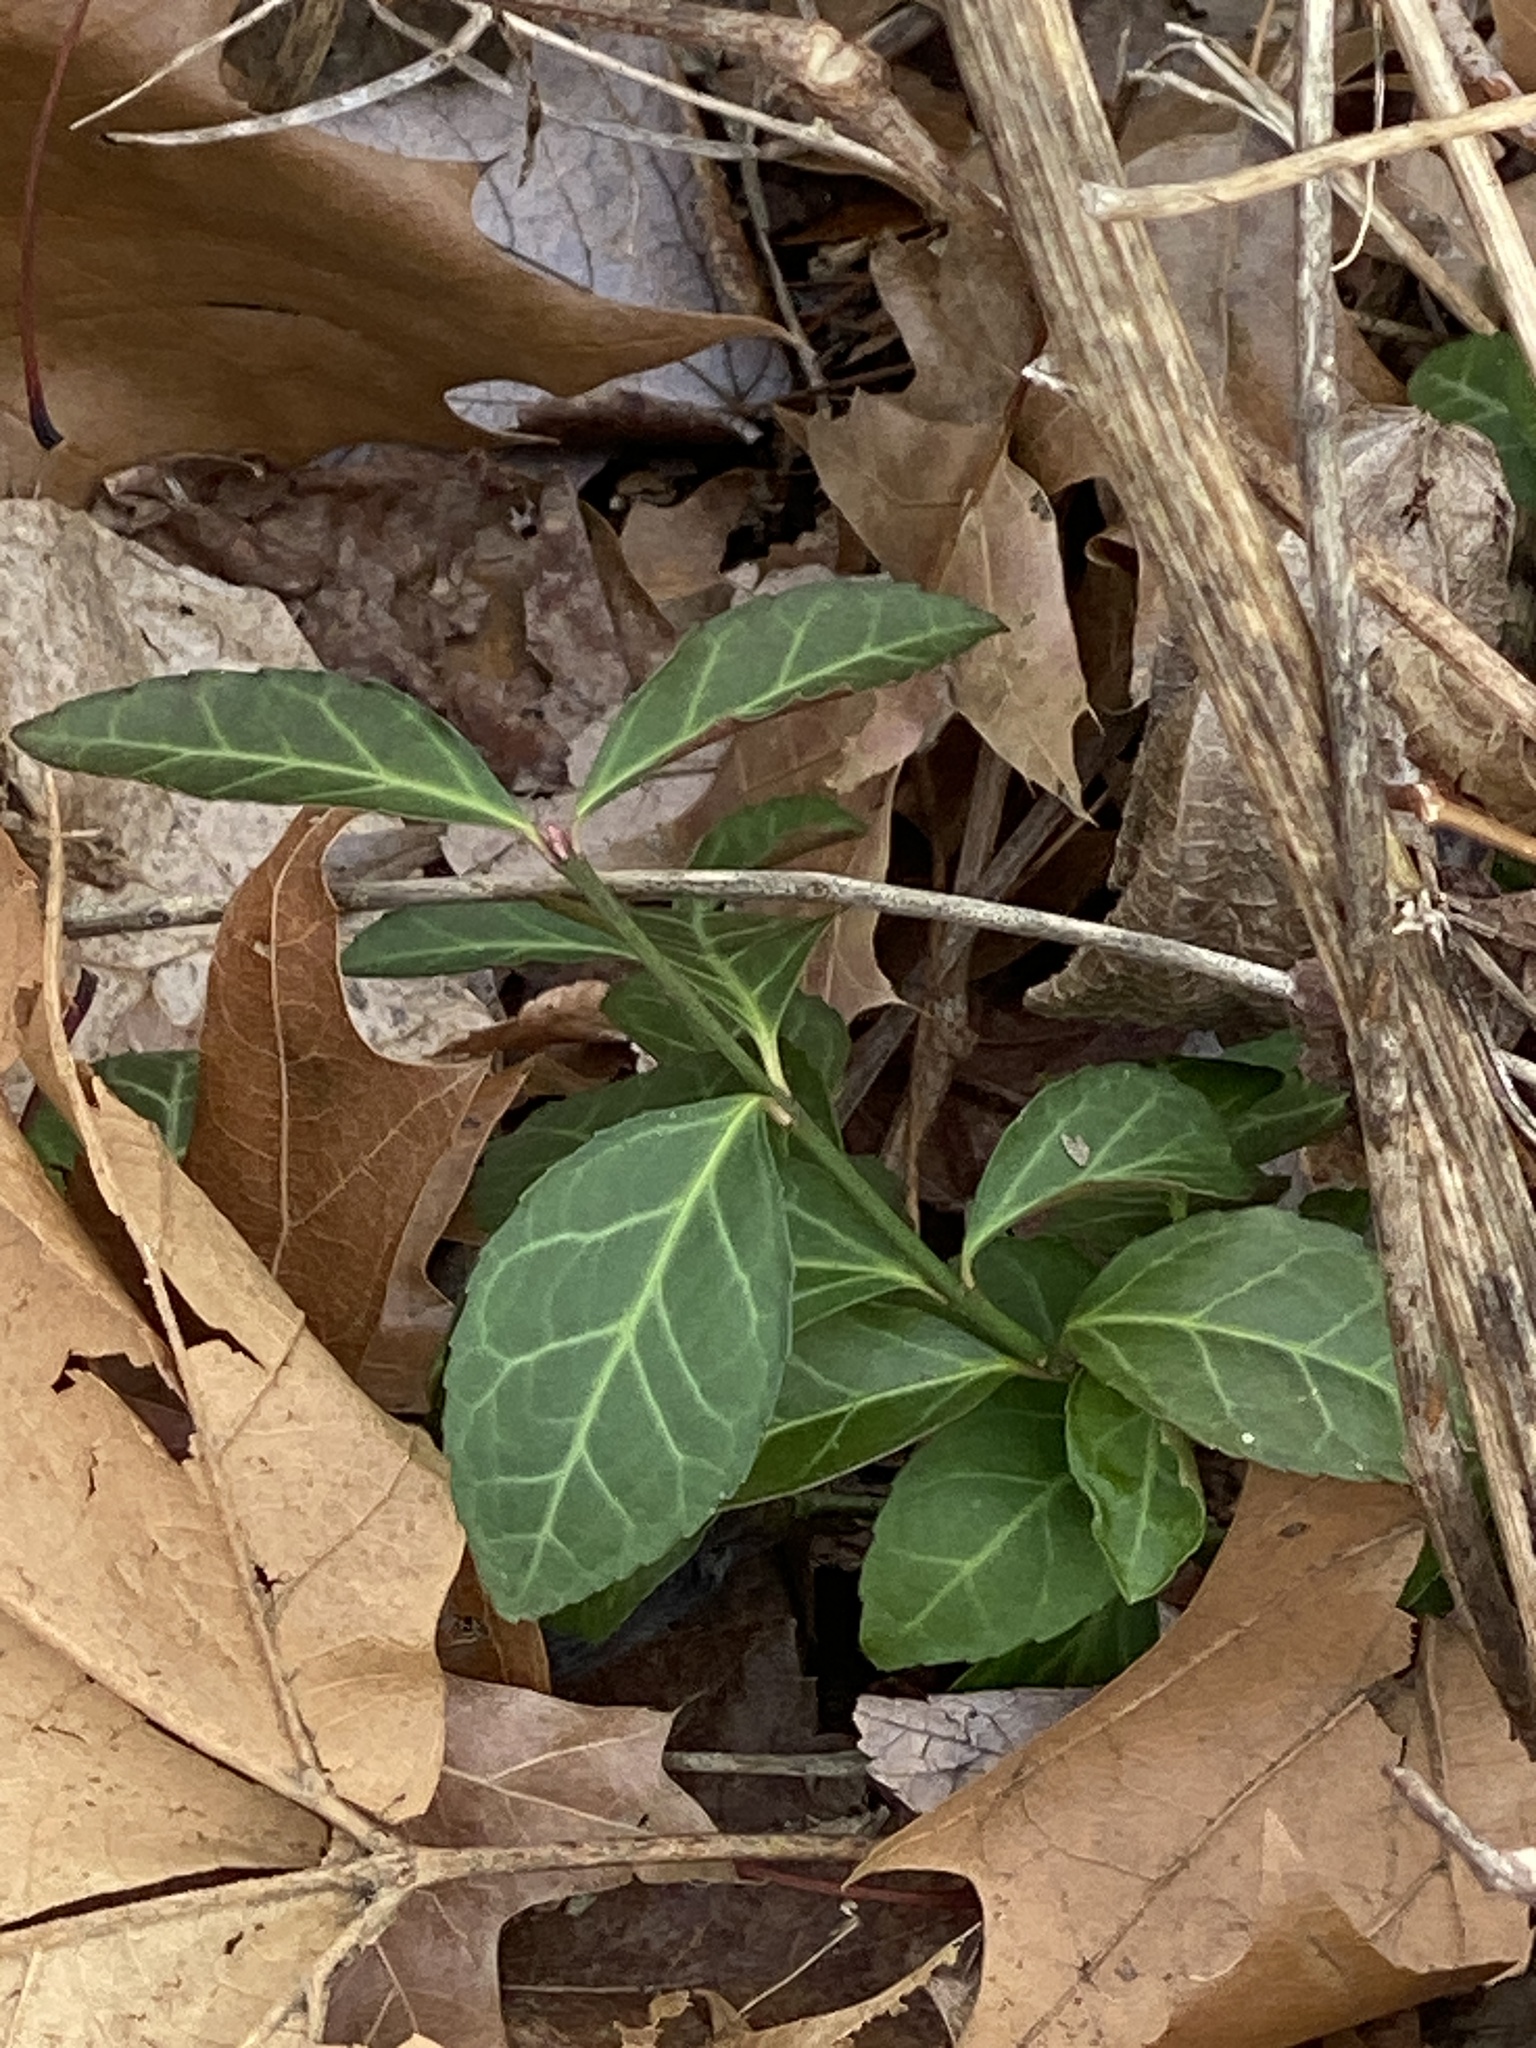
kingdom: Plantae
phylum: Tracheophyta
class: Magnoliopsida
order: Celastrales
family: Celastraceae
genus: Euonymus
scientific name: Euonymus fortunei
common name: Climbing euonymus
